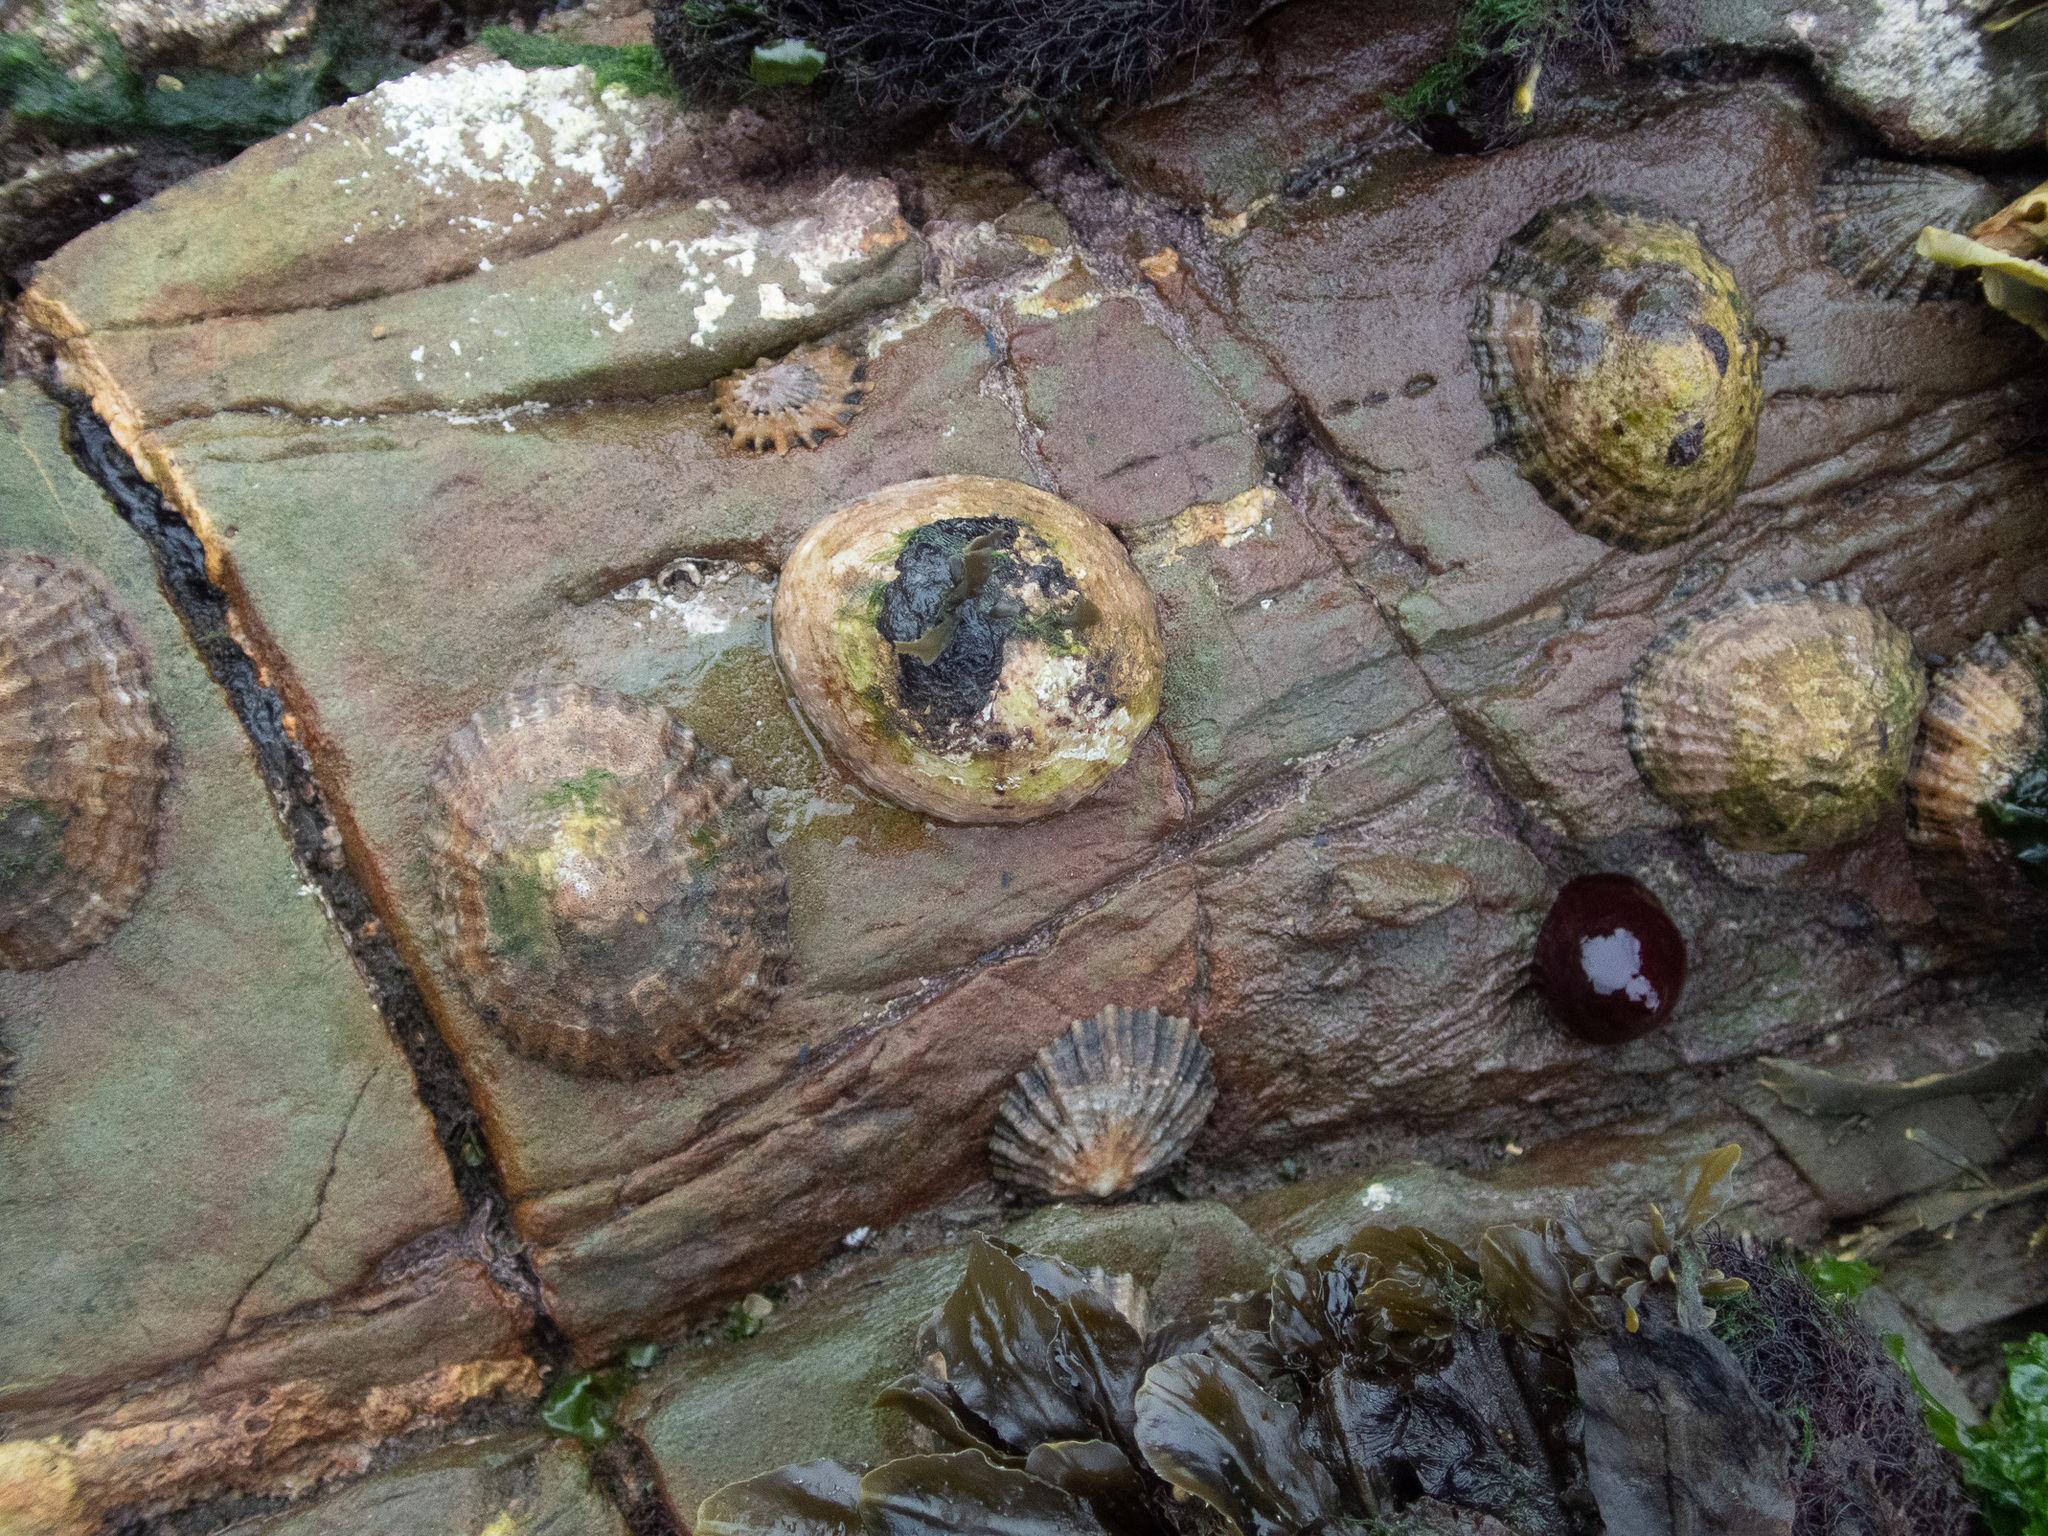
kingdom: Animalia
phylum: Mollusca
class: Gastropoda
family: Patellidae
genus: Patella
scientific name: Patella vulgata
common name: Common limpet
